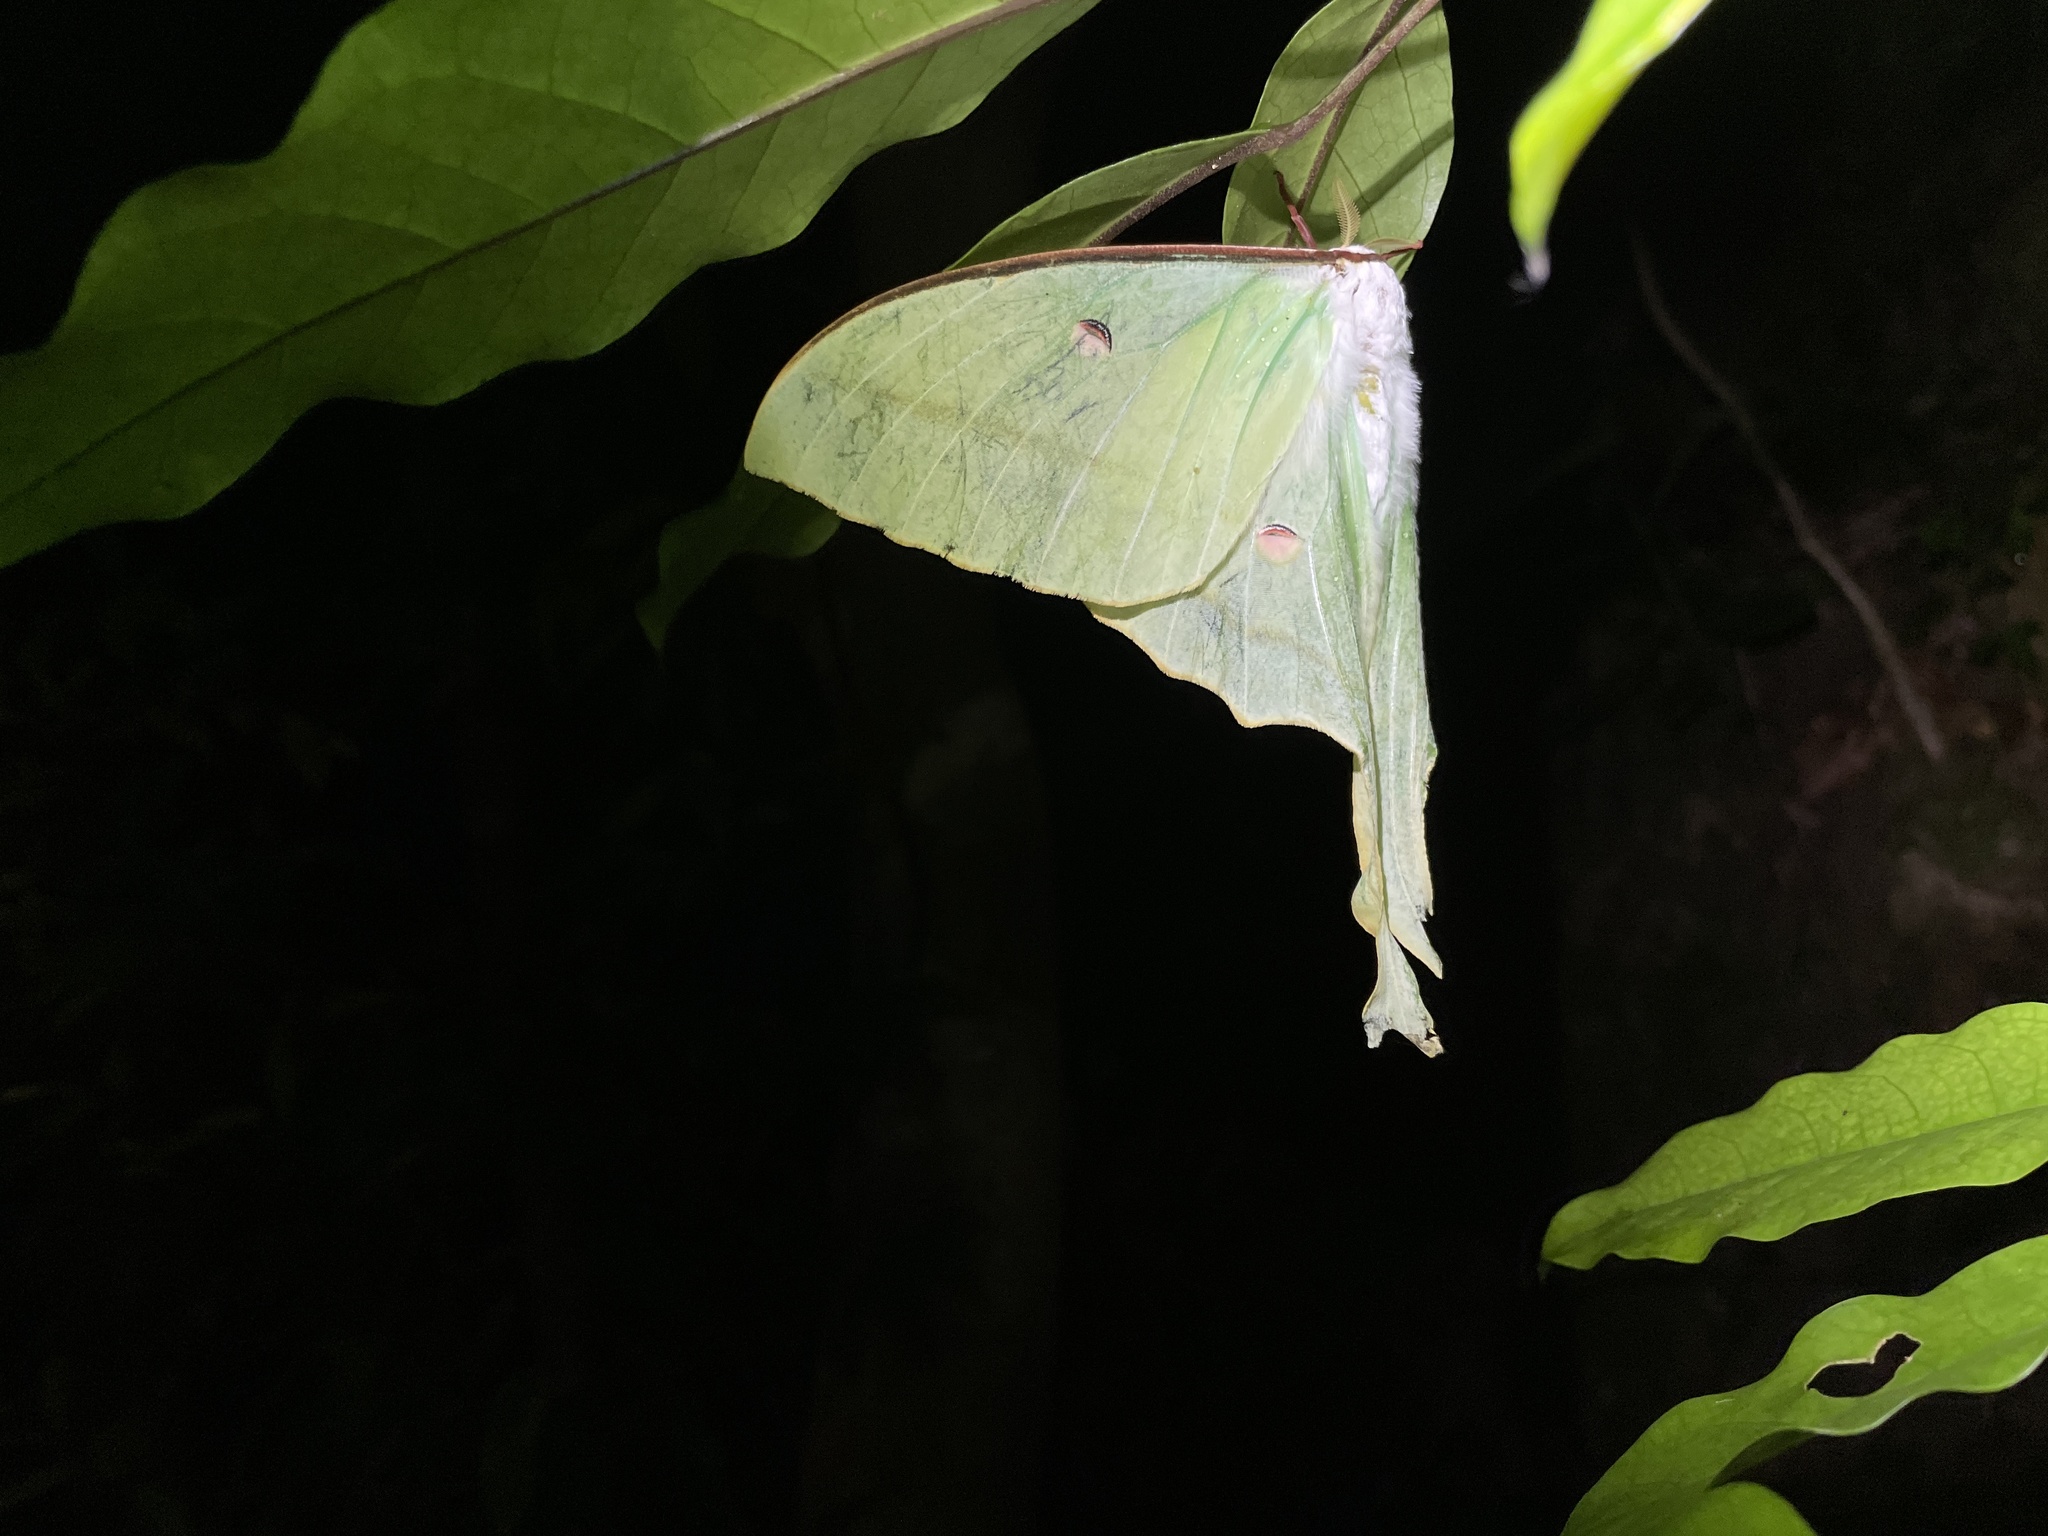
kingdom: Animalia
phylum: Arthropoda
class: Insecta
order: Lepidoptera
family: Saturniidae
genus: Actias
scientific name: Actias ningpoana
